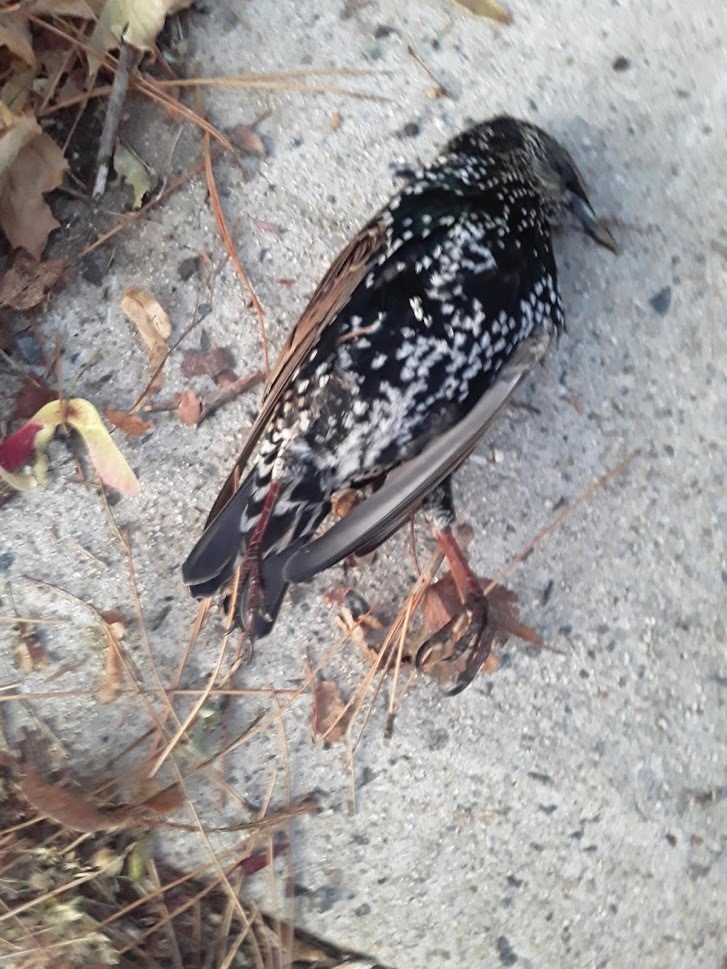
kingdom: Animalia
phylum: Chordata
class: Aves
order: Passeriformes
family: Sturnidae
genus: Sturnus
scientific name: Sturnus vulgaris
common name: Common starling
